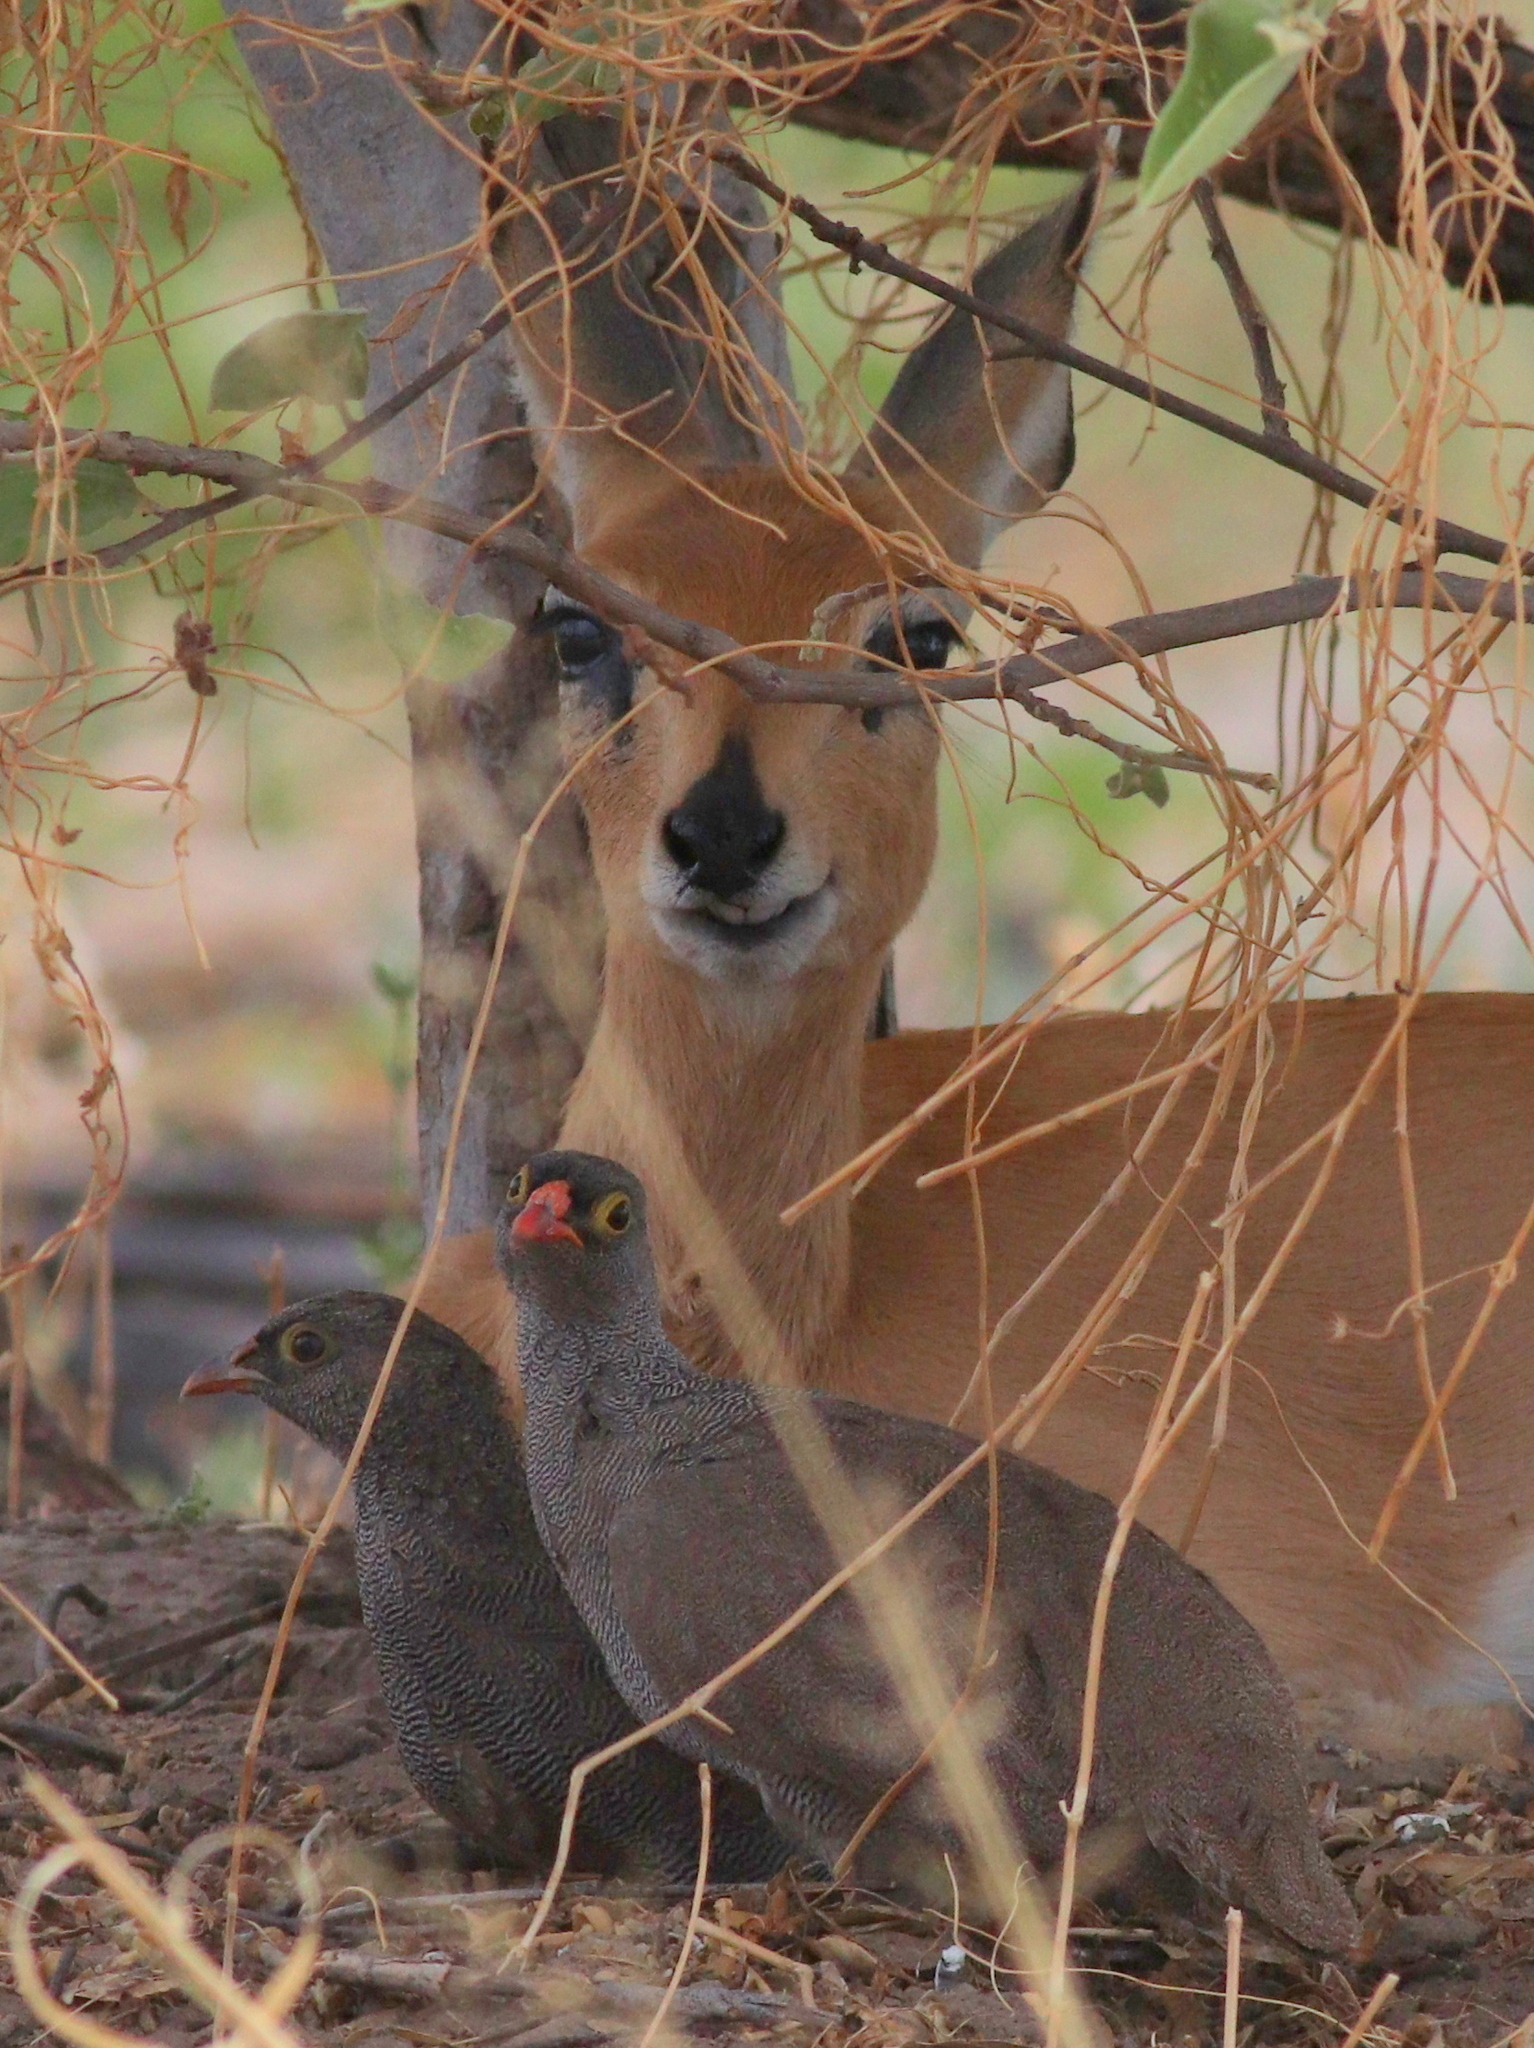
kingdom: Animalia
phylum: Chordata
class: Aves
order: Galliformes
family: Phasianidae
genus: Pternistis
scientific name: Pternistis adspersus
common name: Red-billed spurfowl
